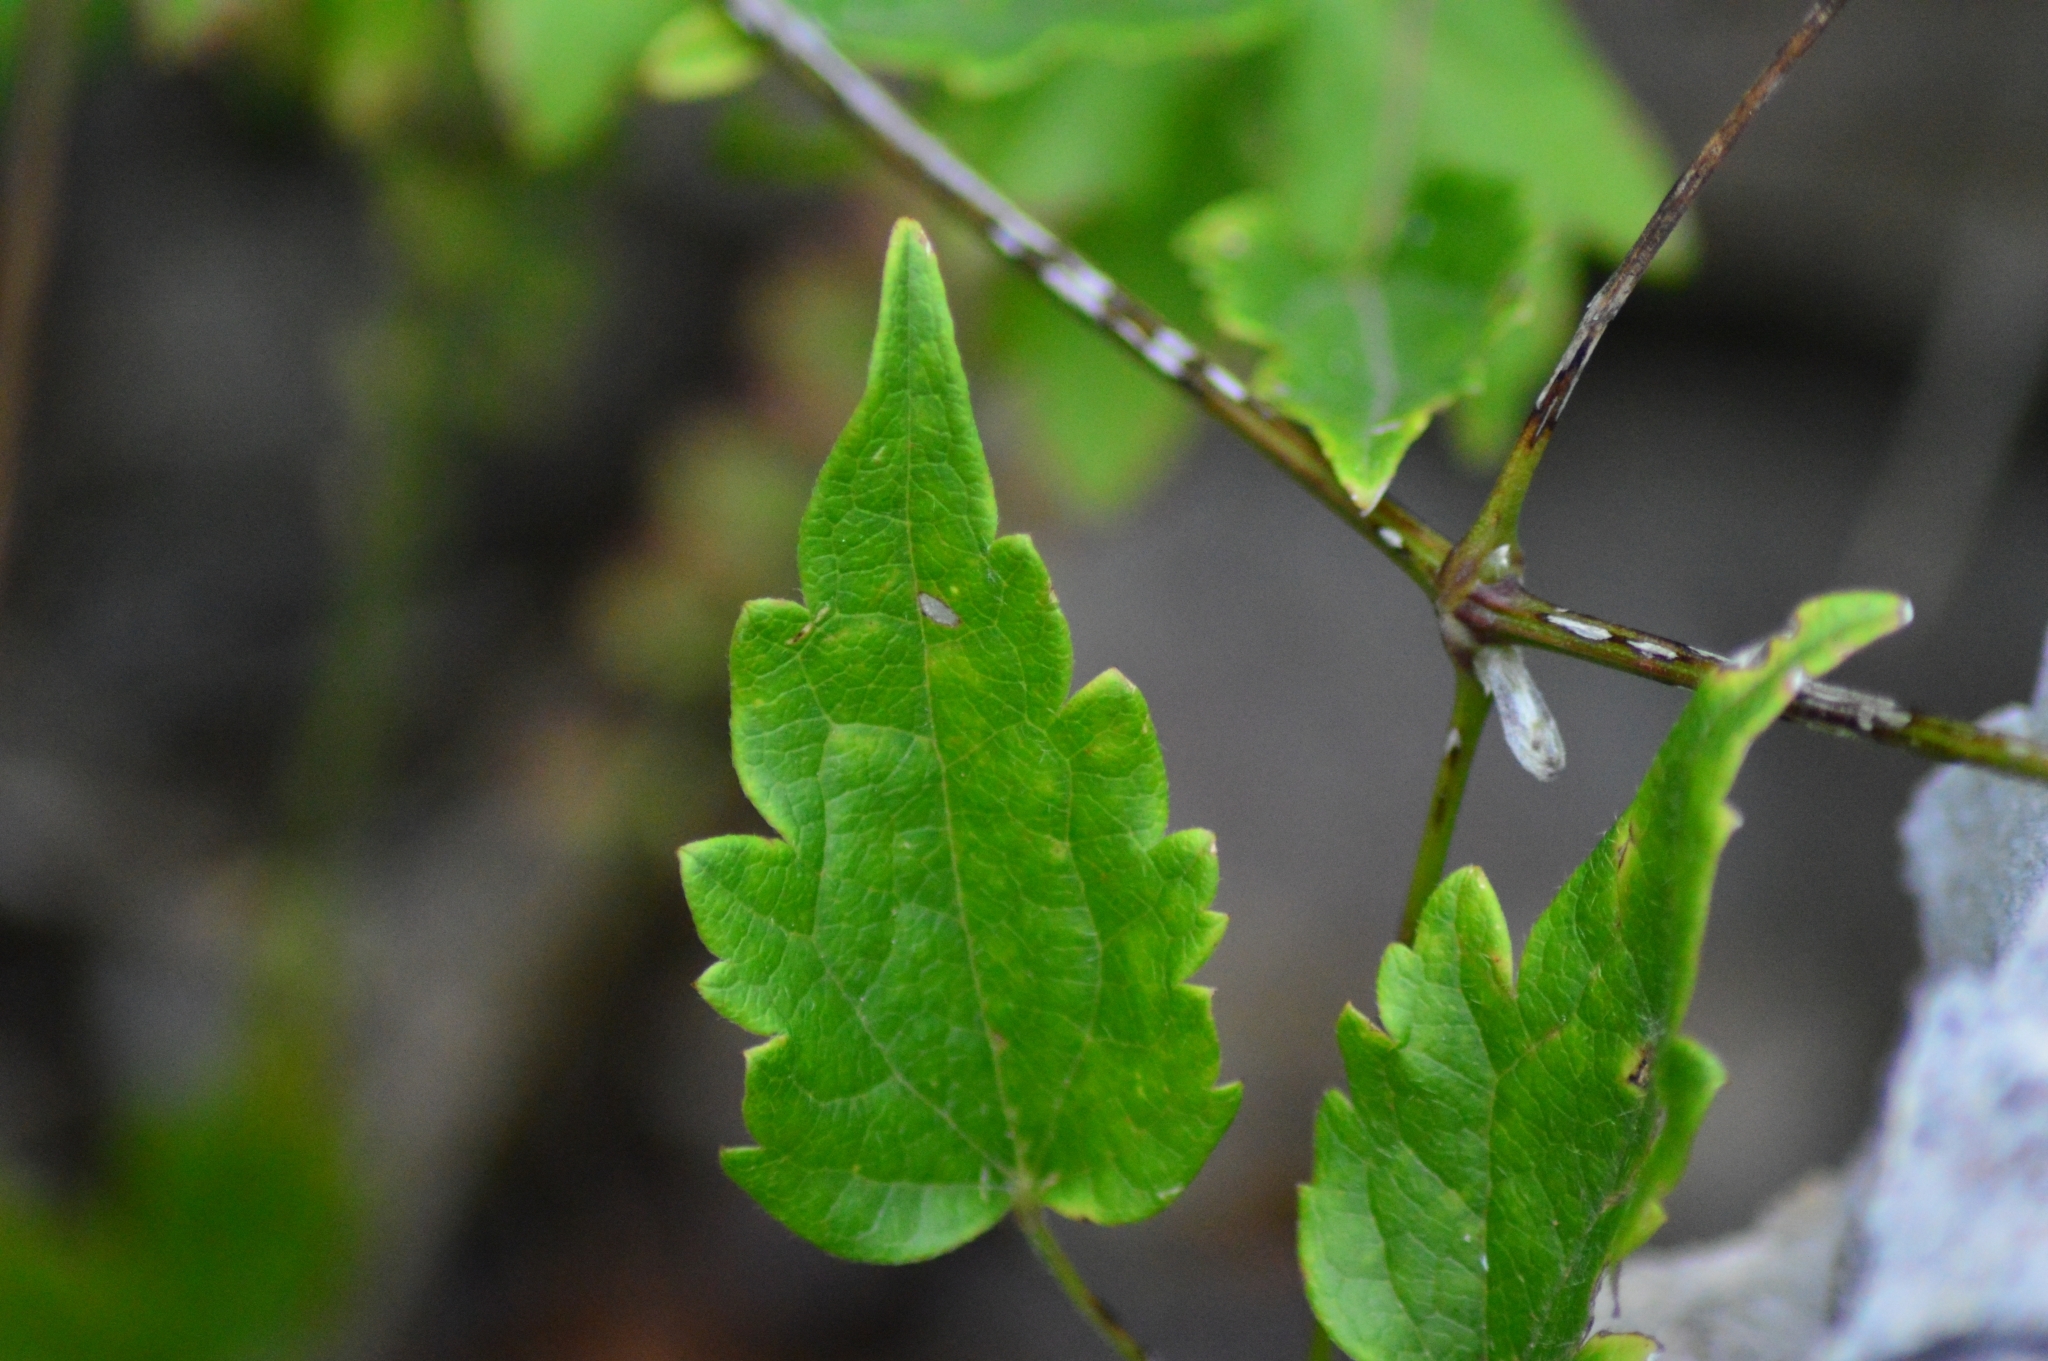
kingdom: Plantae
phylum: Tracheophyta
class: Magnoliopsida
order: Ranunculales
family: Ranunculaceae
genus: Clematis
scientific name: Clematis vitalba
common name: Evergreen clematis
